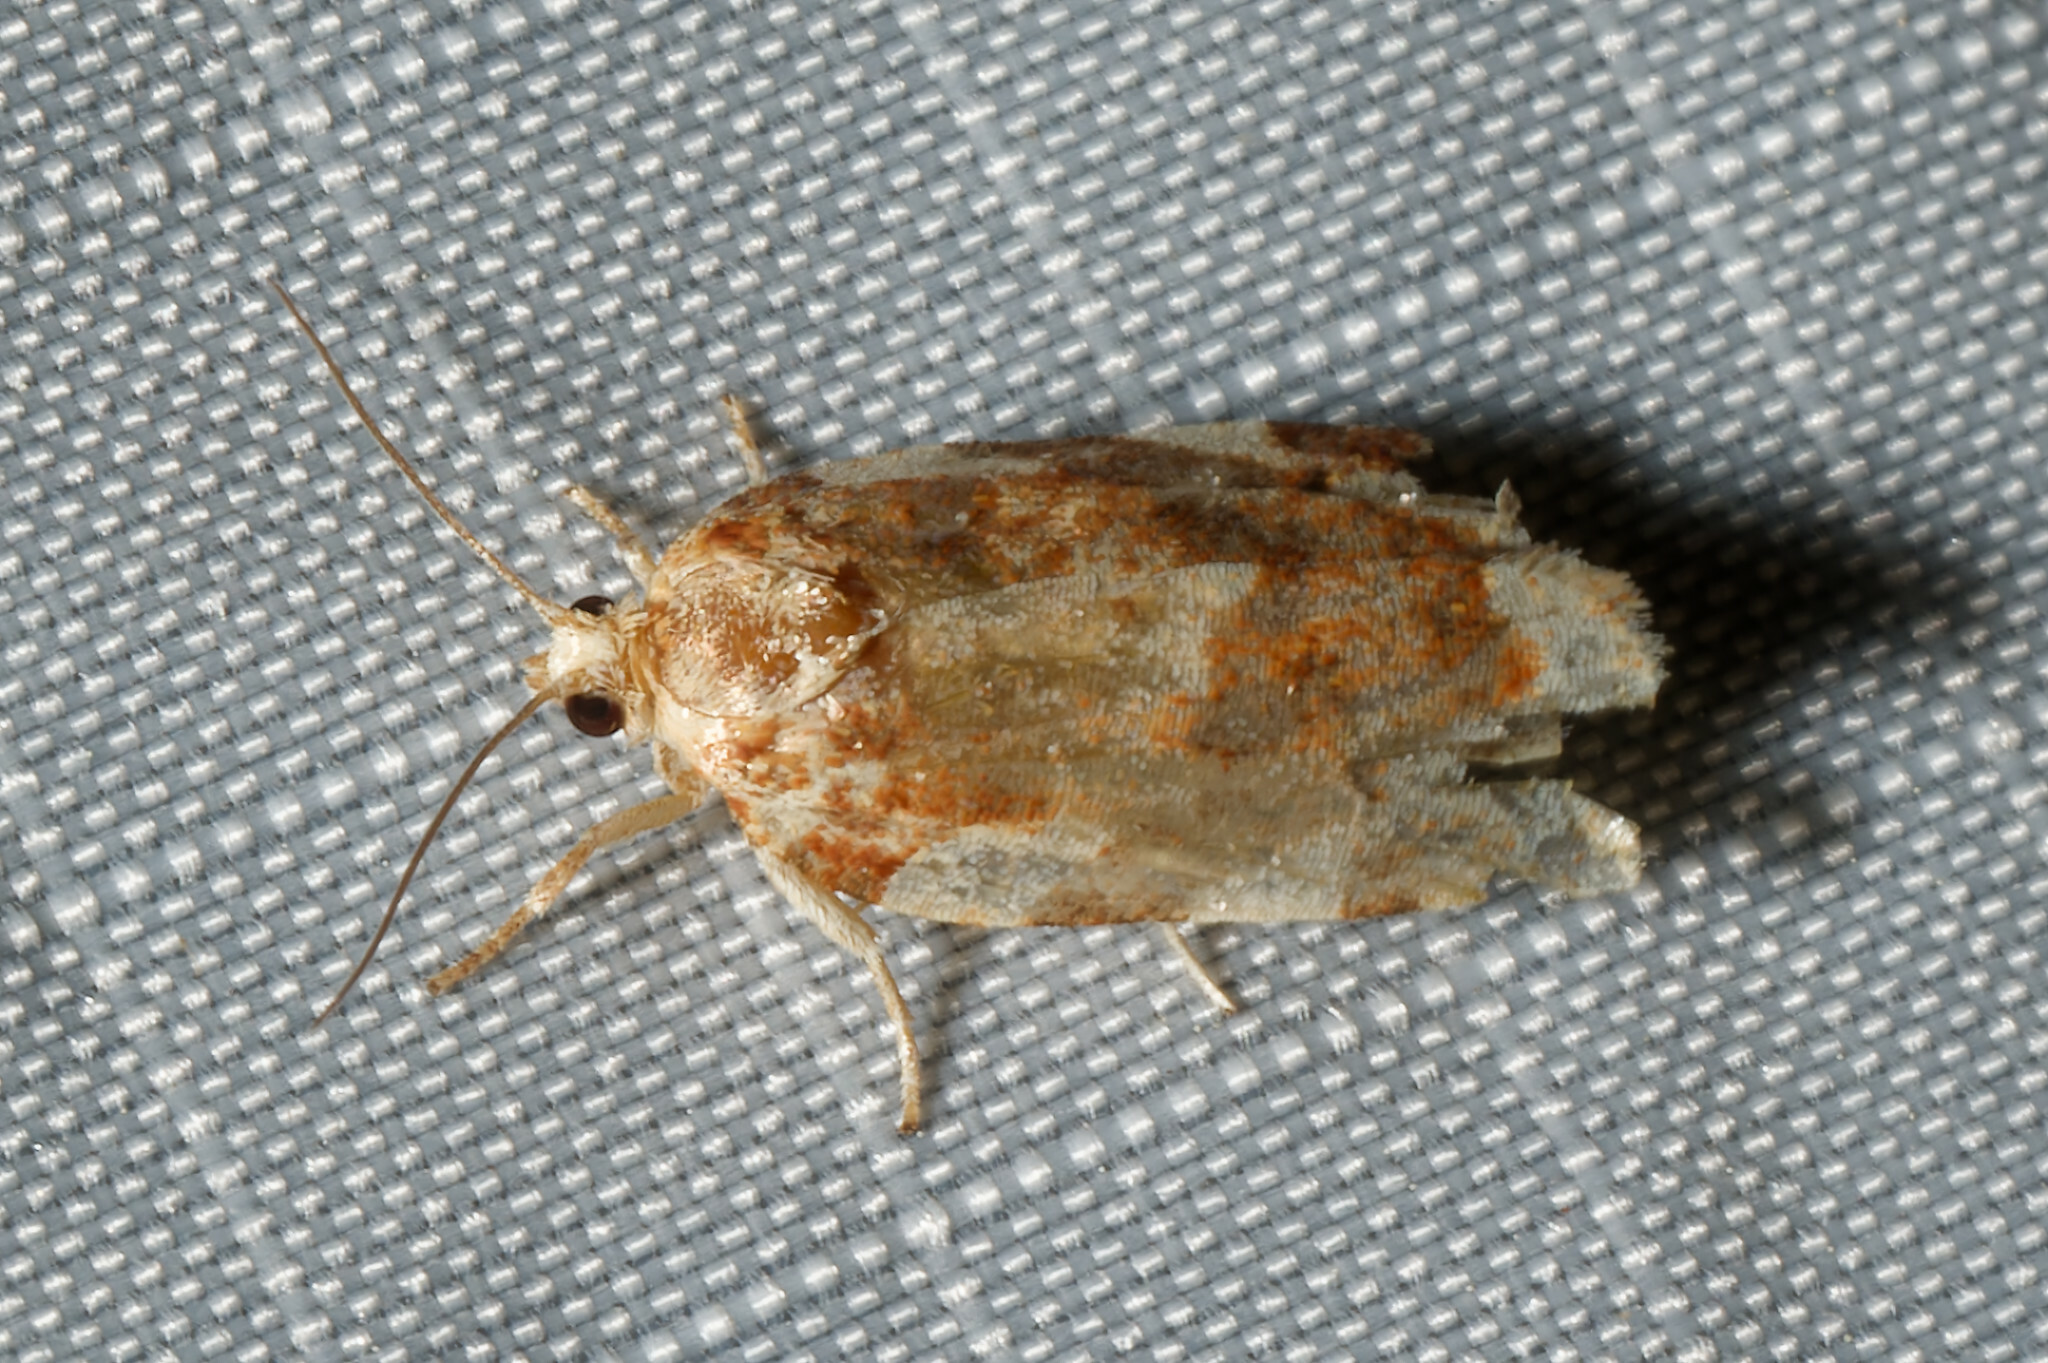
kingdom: Animalia
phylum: Arthropoda
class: Insecta
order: Lepidoptera
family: Tortricidae
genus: Archips
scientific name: Archips argyrospila
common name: Fruit-tree leafroller moth
